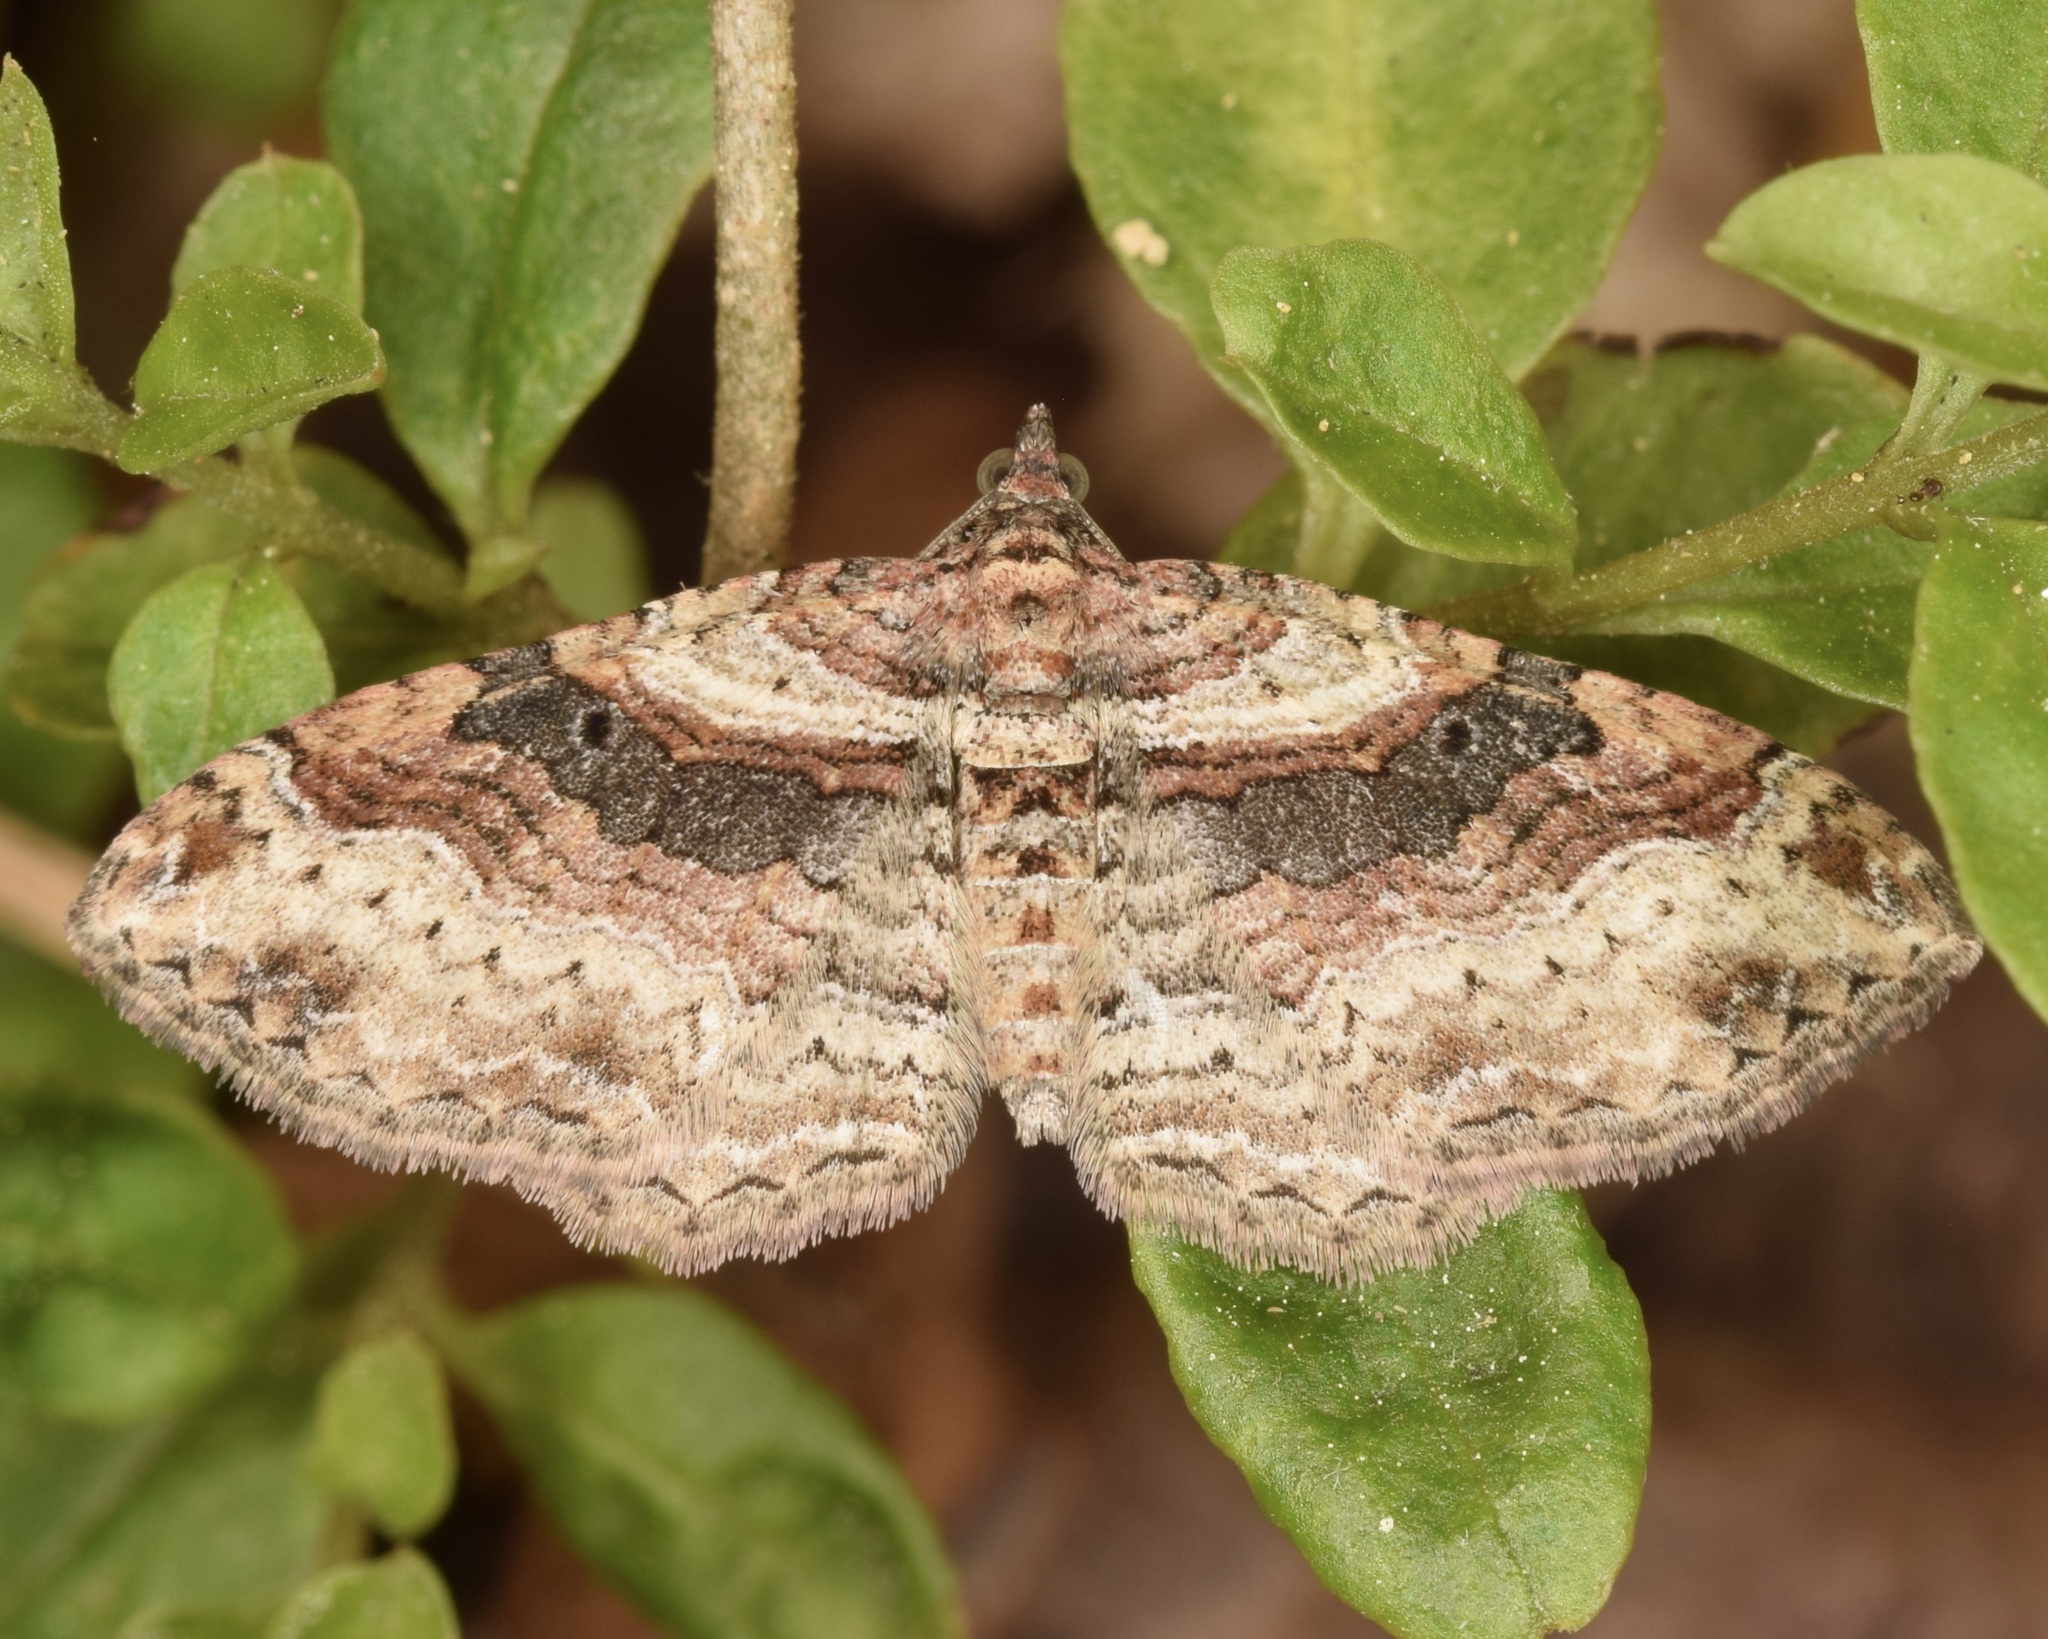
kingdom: Animalia
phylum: Arthropoda
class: Insecta
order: Lepidoptera
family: Geometridae
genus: Costaconvexa
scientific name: Costaconvexa centrostrigaria
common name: Bent-line carpet
